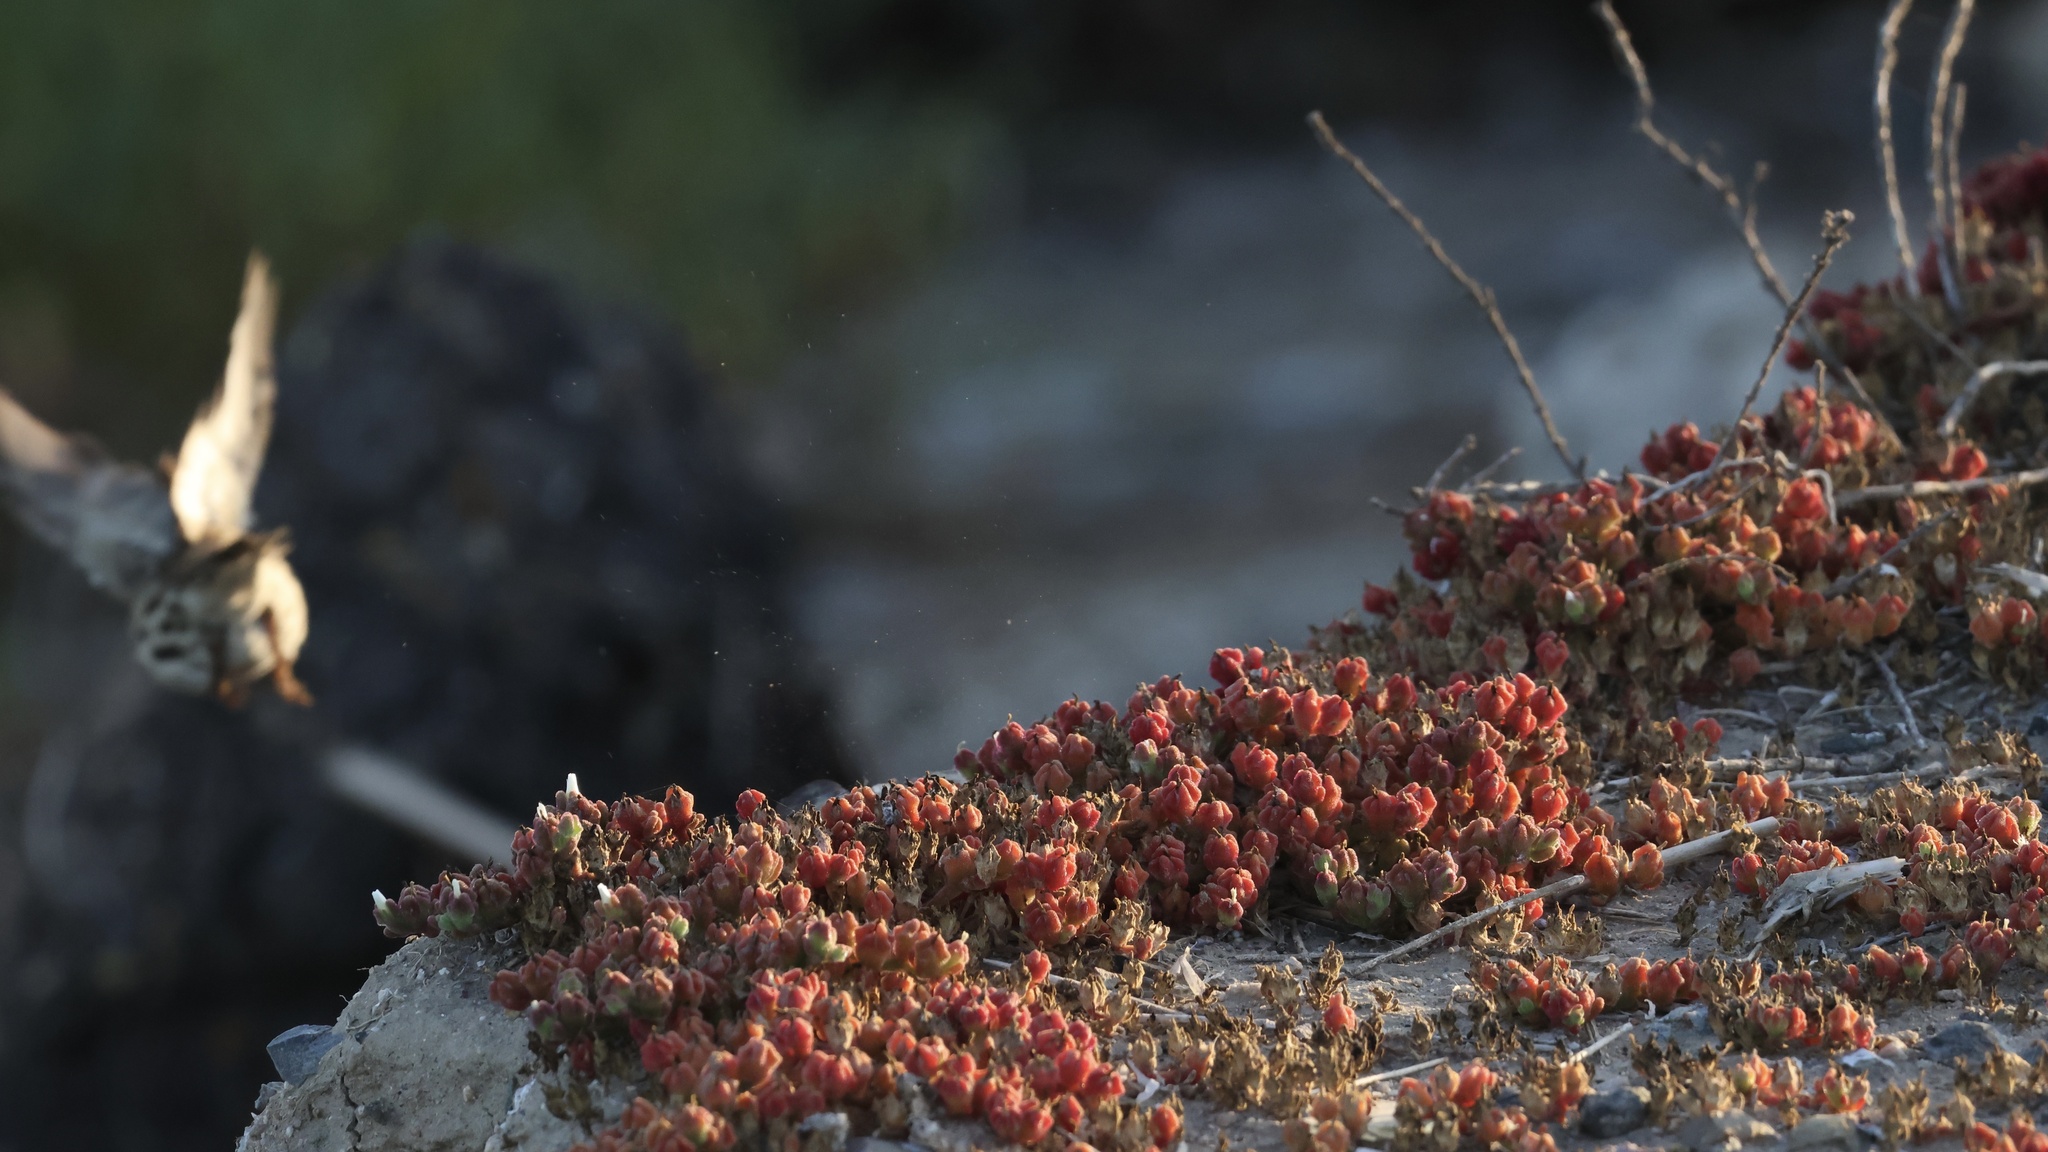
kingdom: Animalia
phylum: Chordata
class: Aves
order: Passeriformes
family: Passerellidae
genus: Passerculus
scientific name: Passerculus sandwichensis
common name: Savannah sparrow
